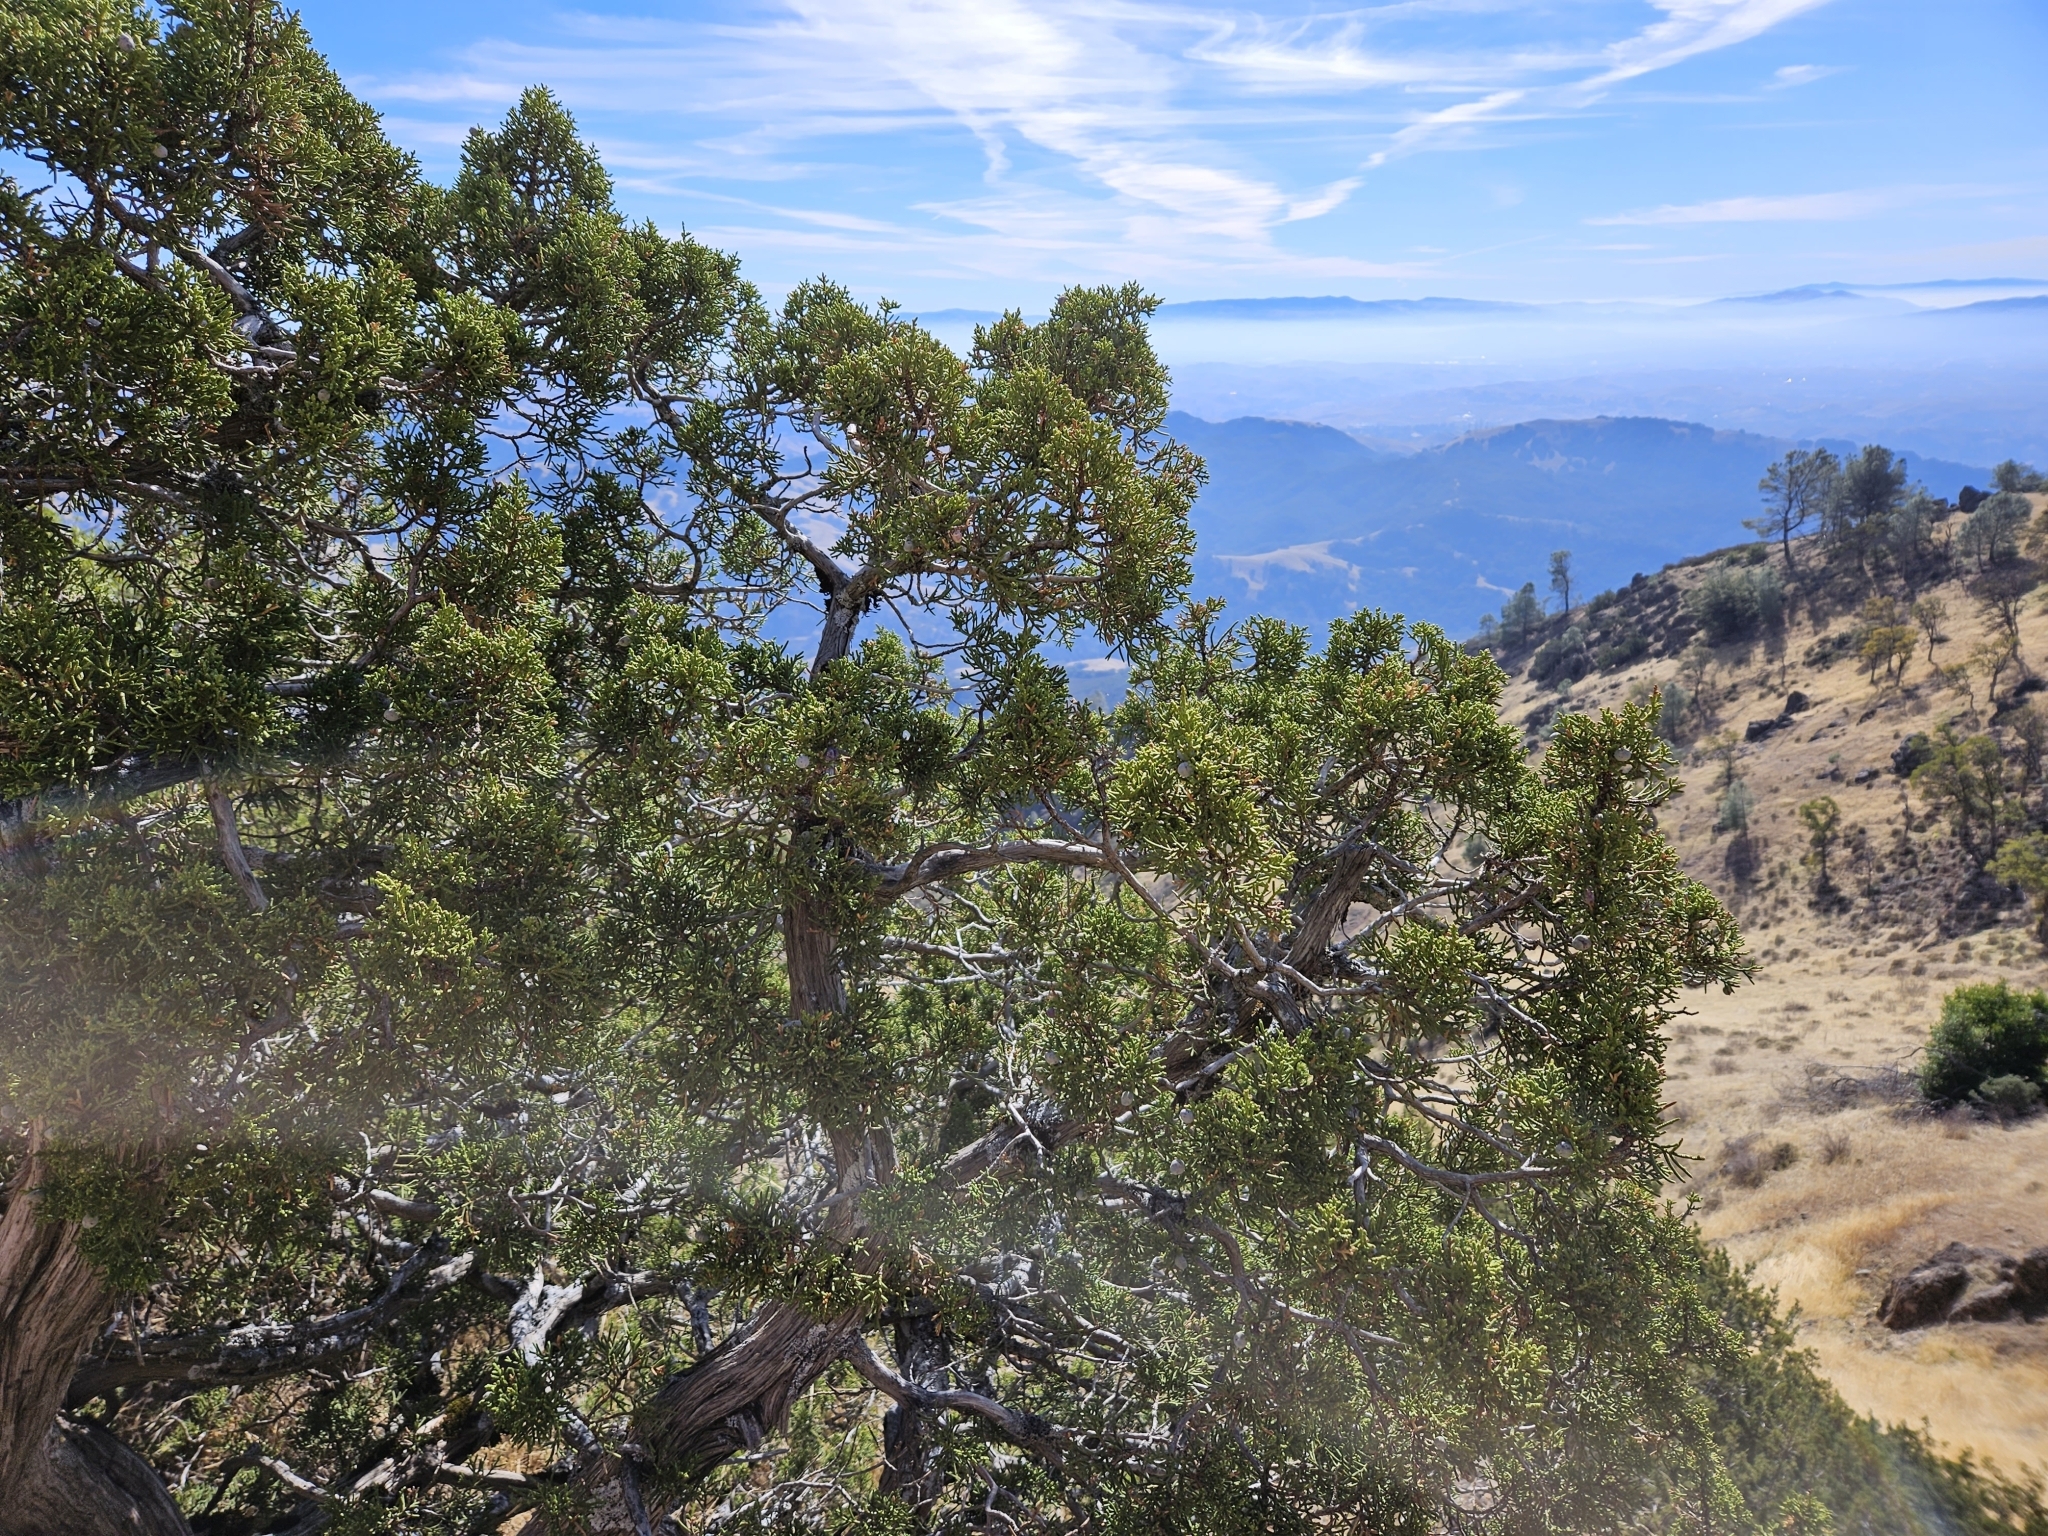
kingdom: Plantae
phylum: Tracheophyta
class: Pinopsida
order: Pinales
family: Cupressaceae
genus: Juniperus
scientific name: Juniperus californica
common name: California juniper
